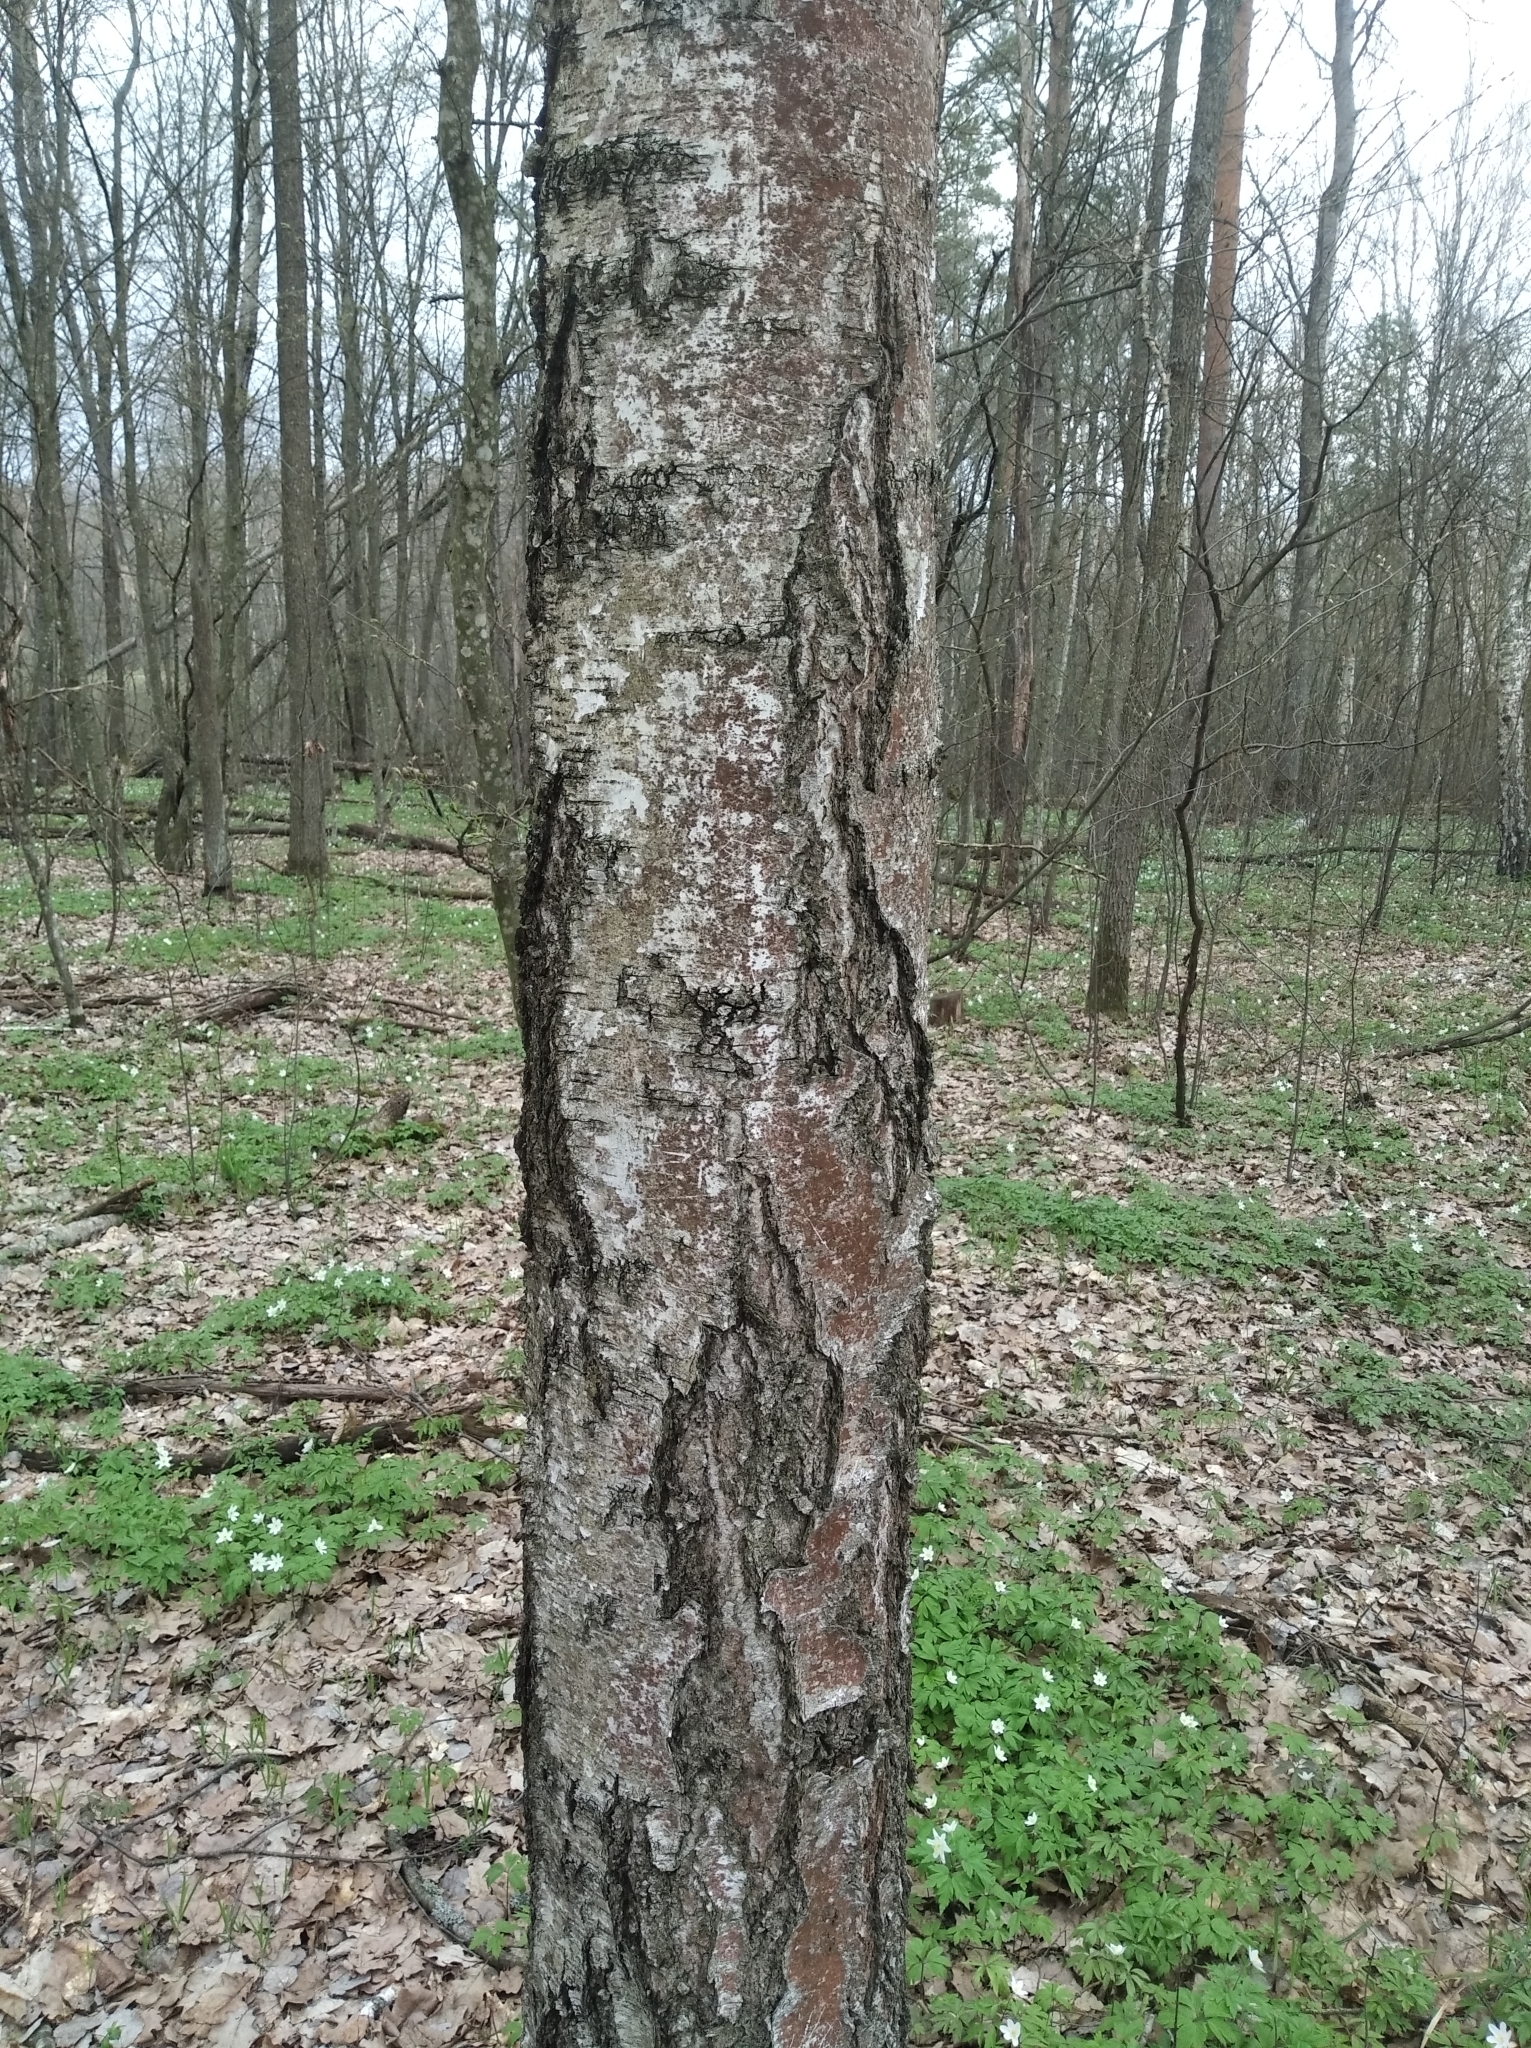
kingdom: Plantae
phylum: Tracheophyta
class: Magnoliopsida
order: Ranunculales
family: Ranunculaceae
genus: Anemone
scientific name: Anemone nemorosa
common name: Wood anemone
